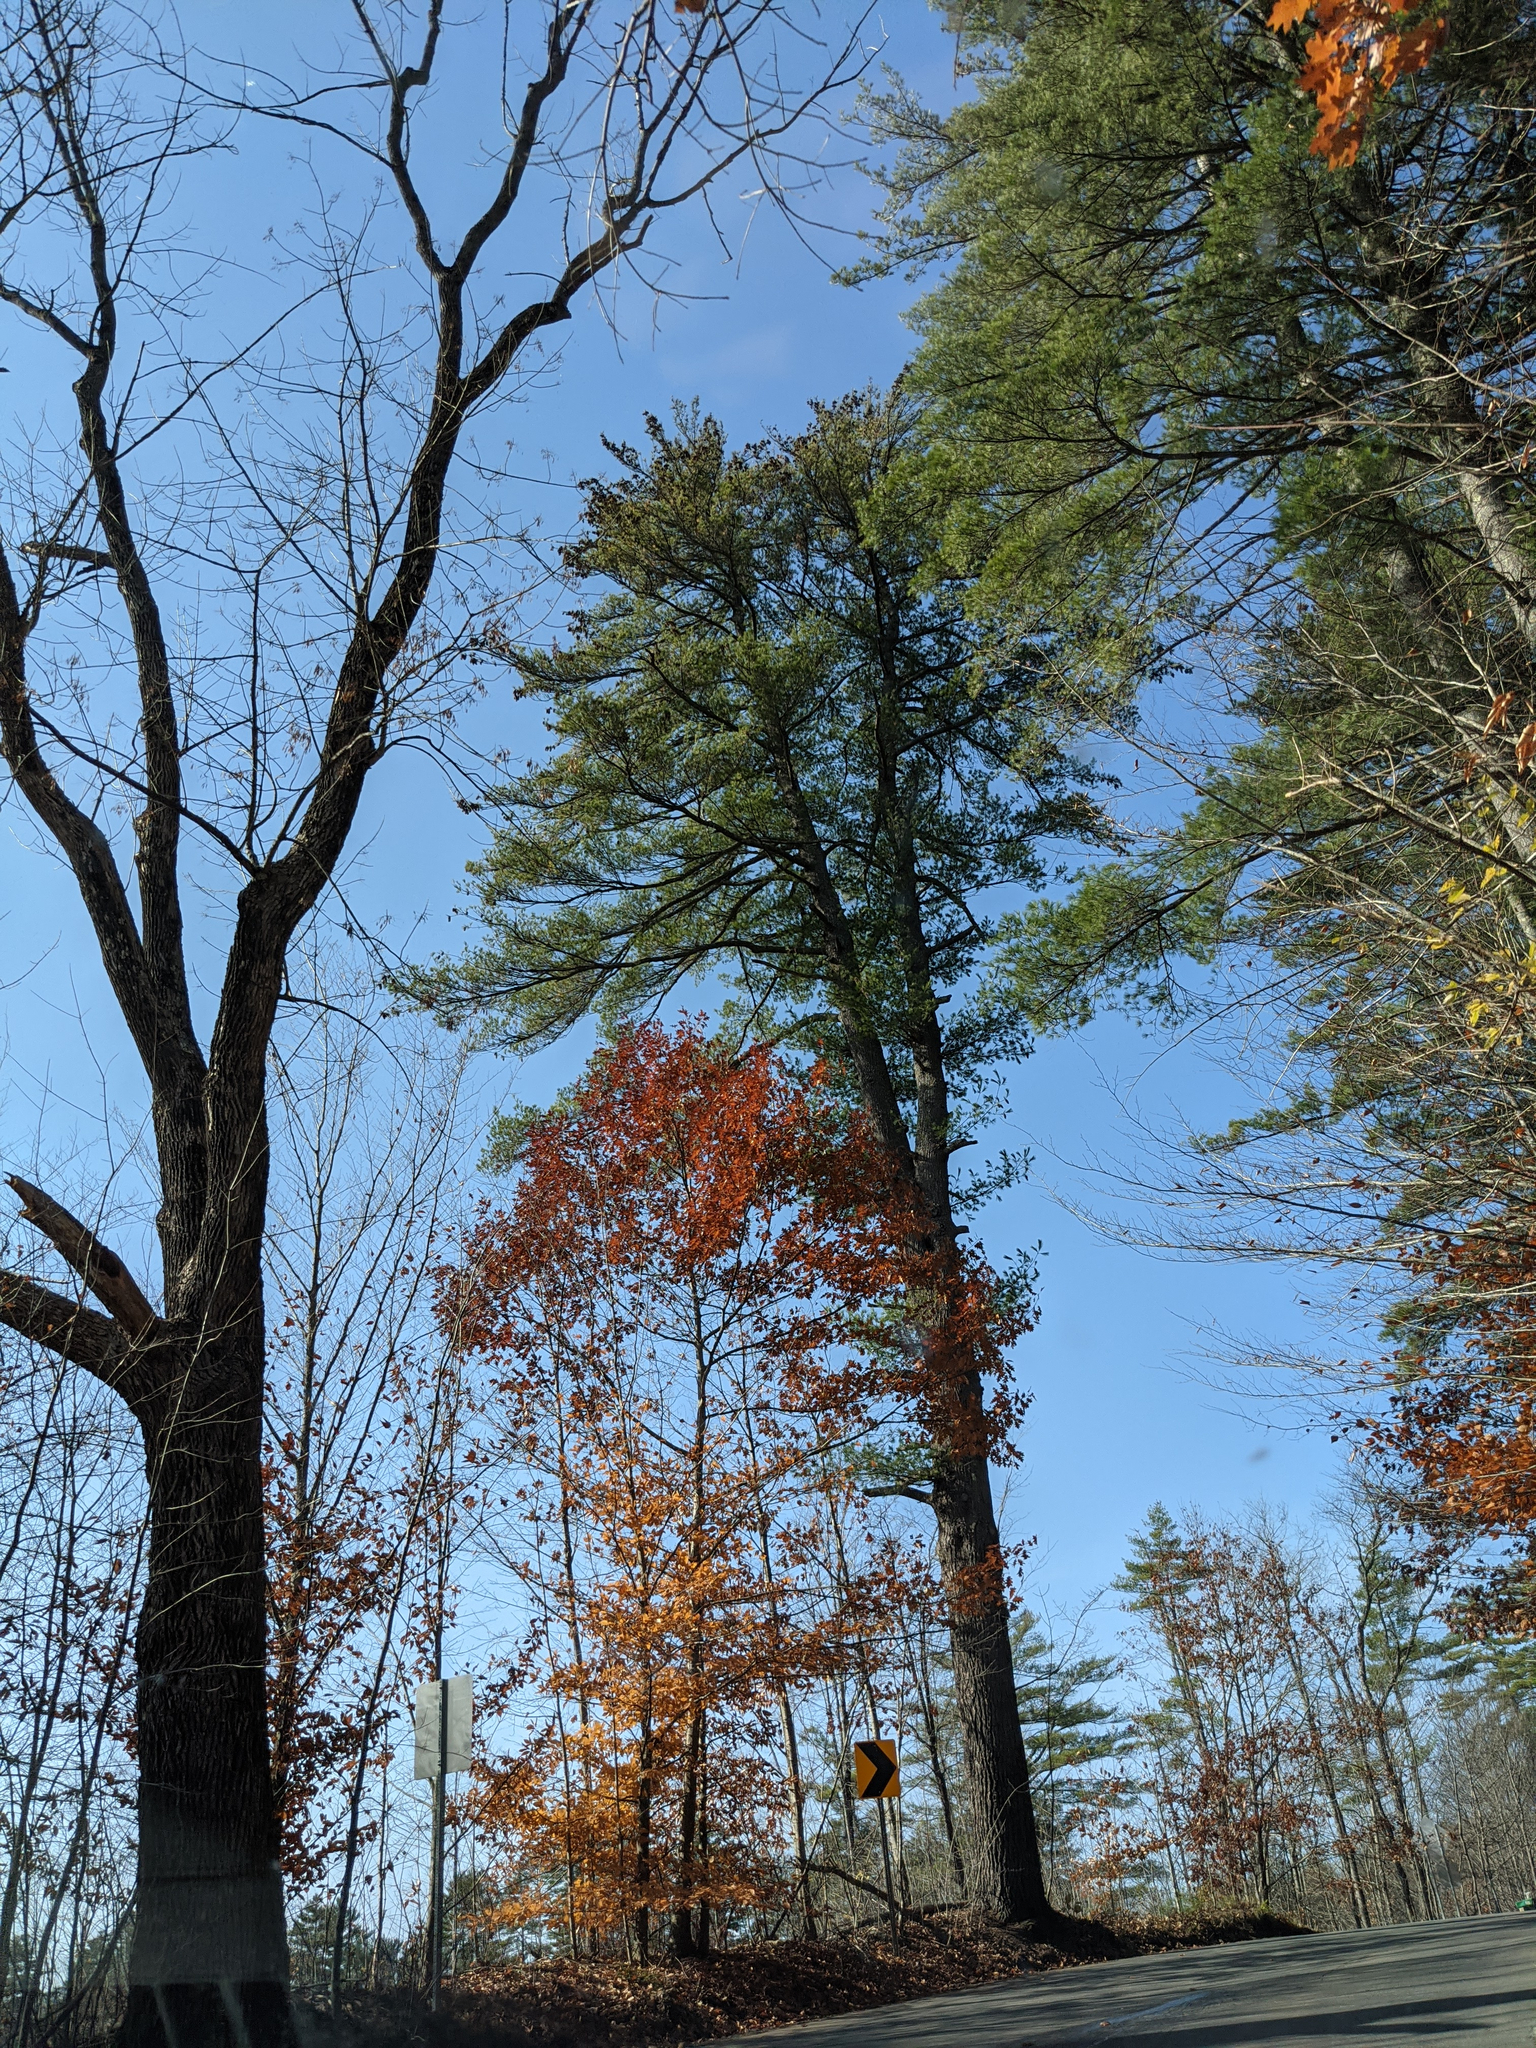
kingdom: Plantae
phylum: Tracheophyta
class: Pinopsida
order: Pinales
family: Pinaceae
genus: Pinus
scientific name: Pinus strobus
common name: Weymouth pine
